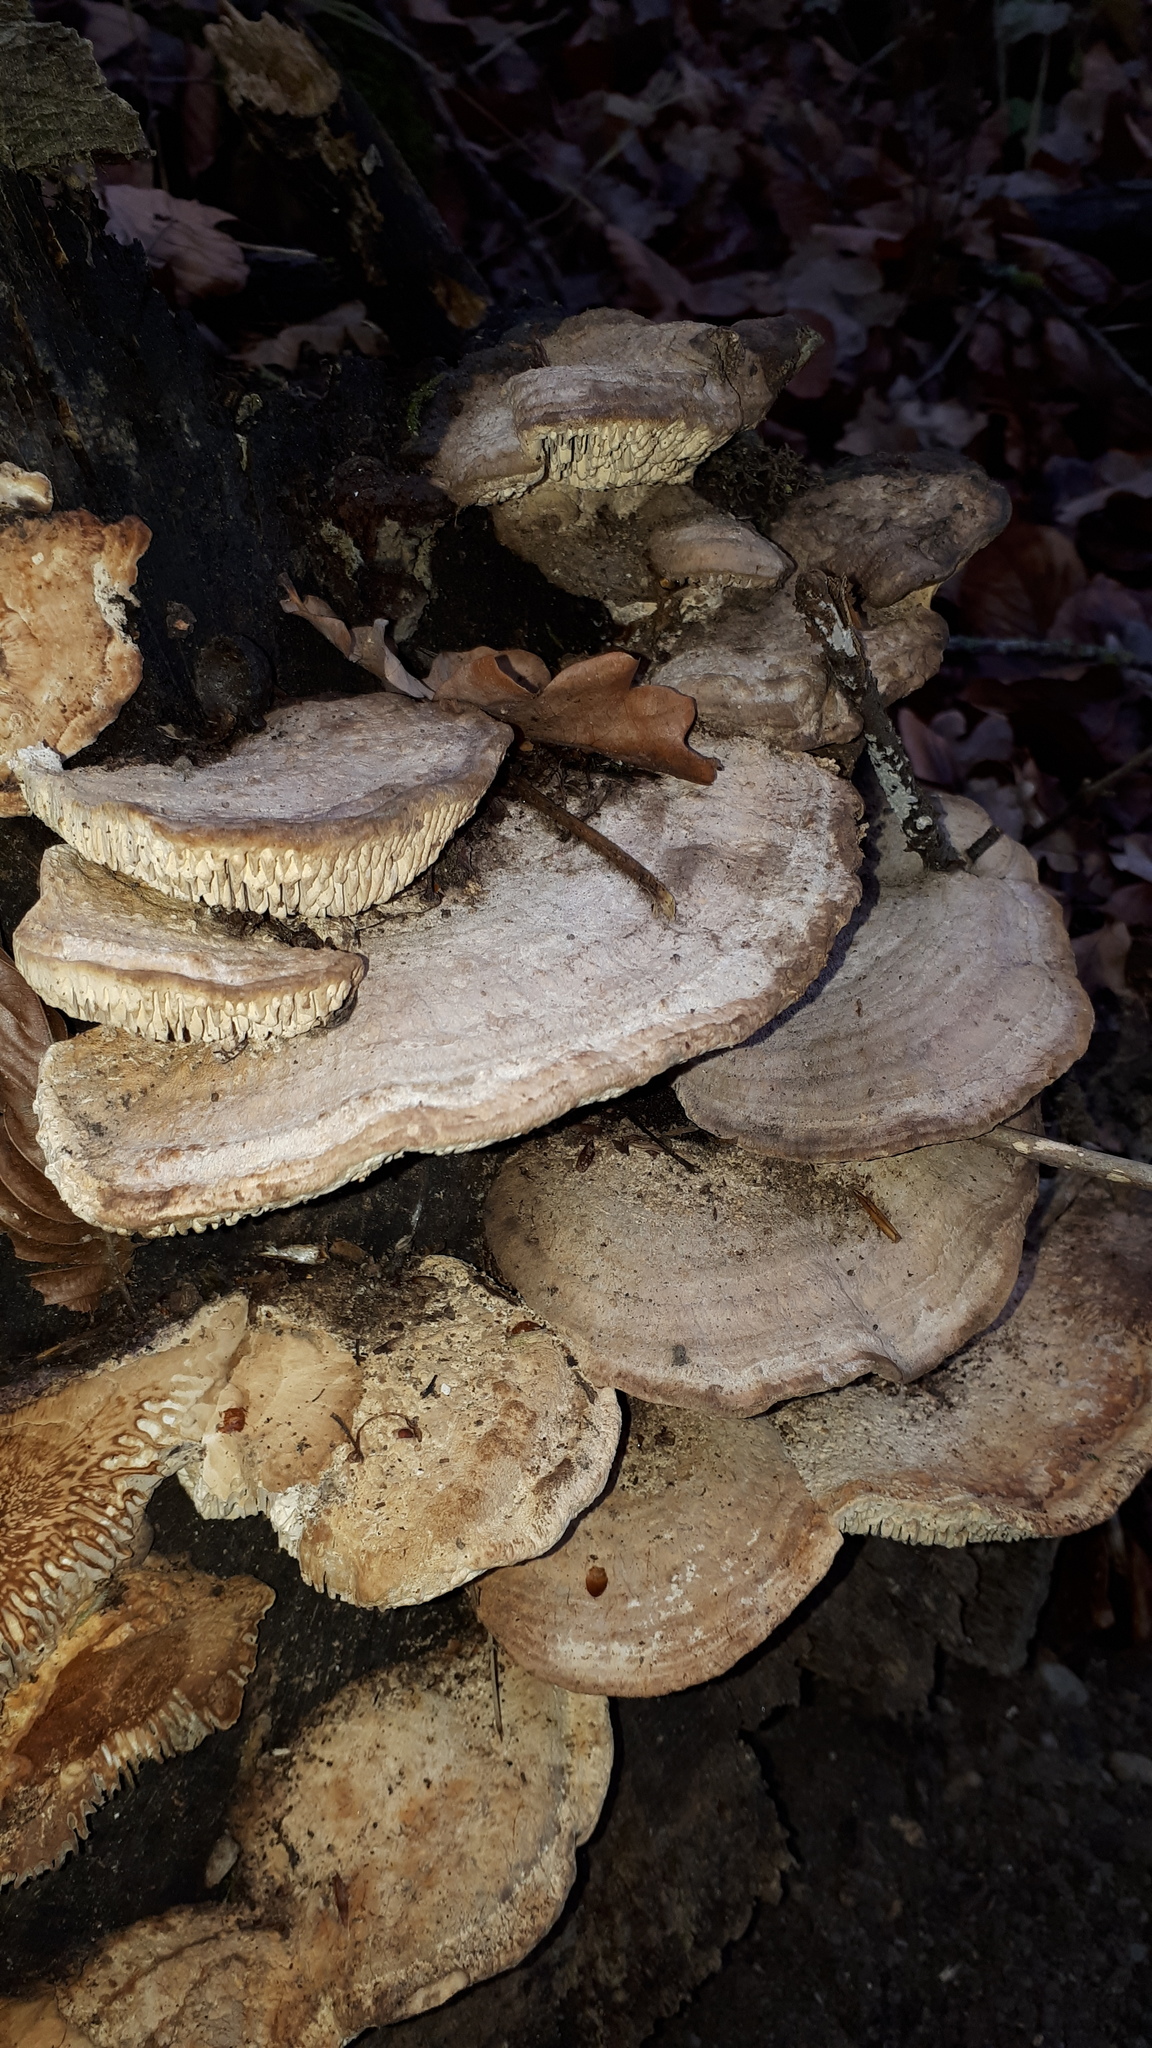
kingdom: Fungi
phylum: Basidiomycota
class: Agaricomycetes
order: Polyporales
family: Fomitopsidaceae
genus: Fomitopsis
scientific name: Fomitopsis
